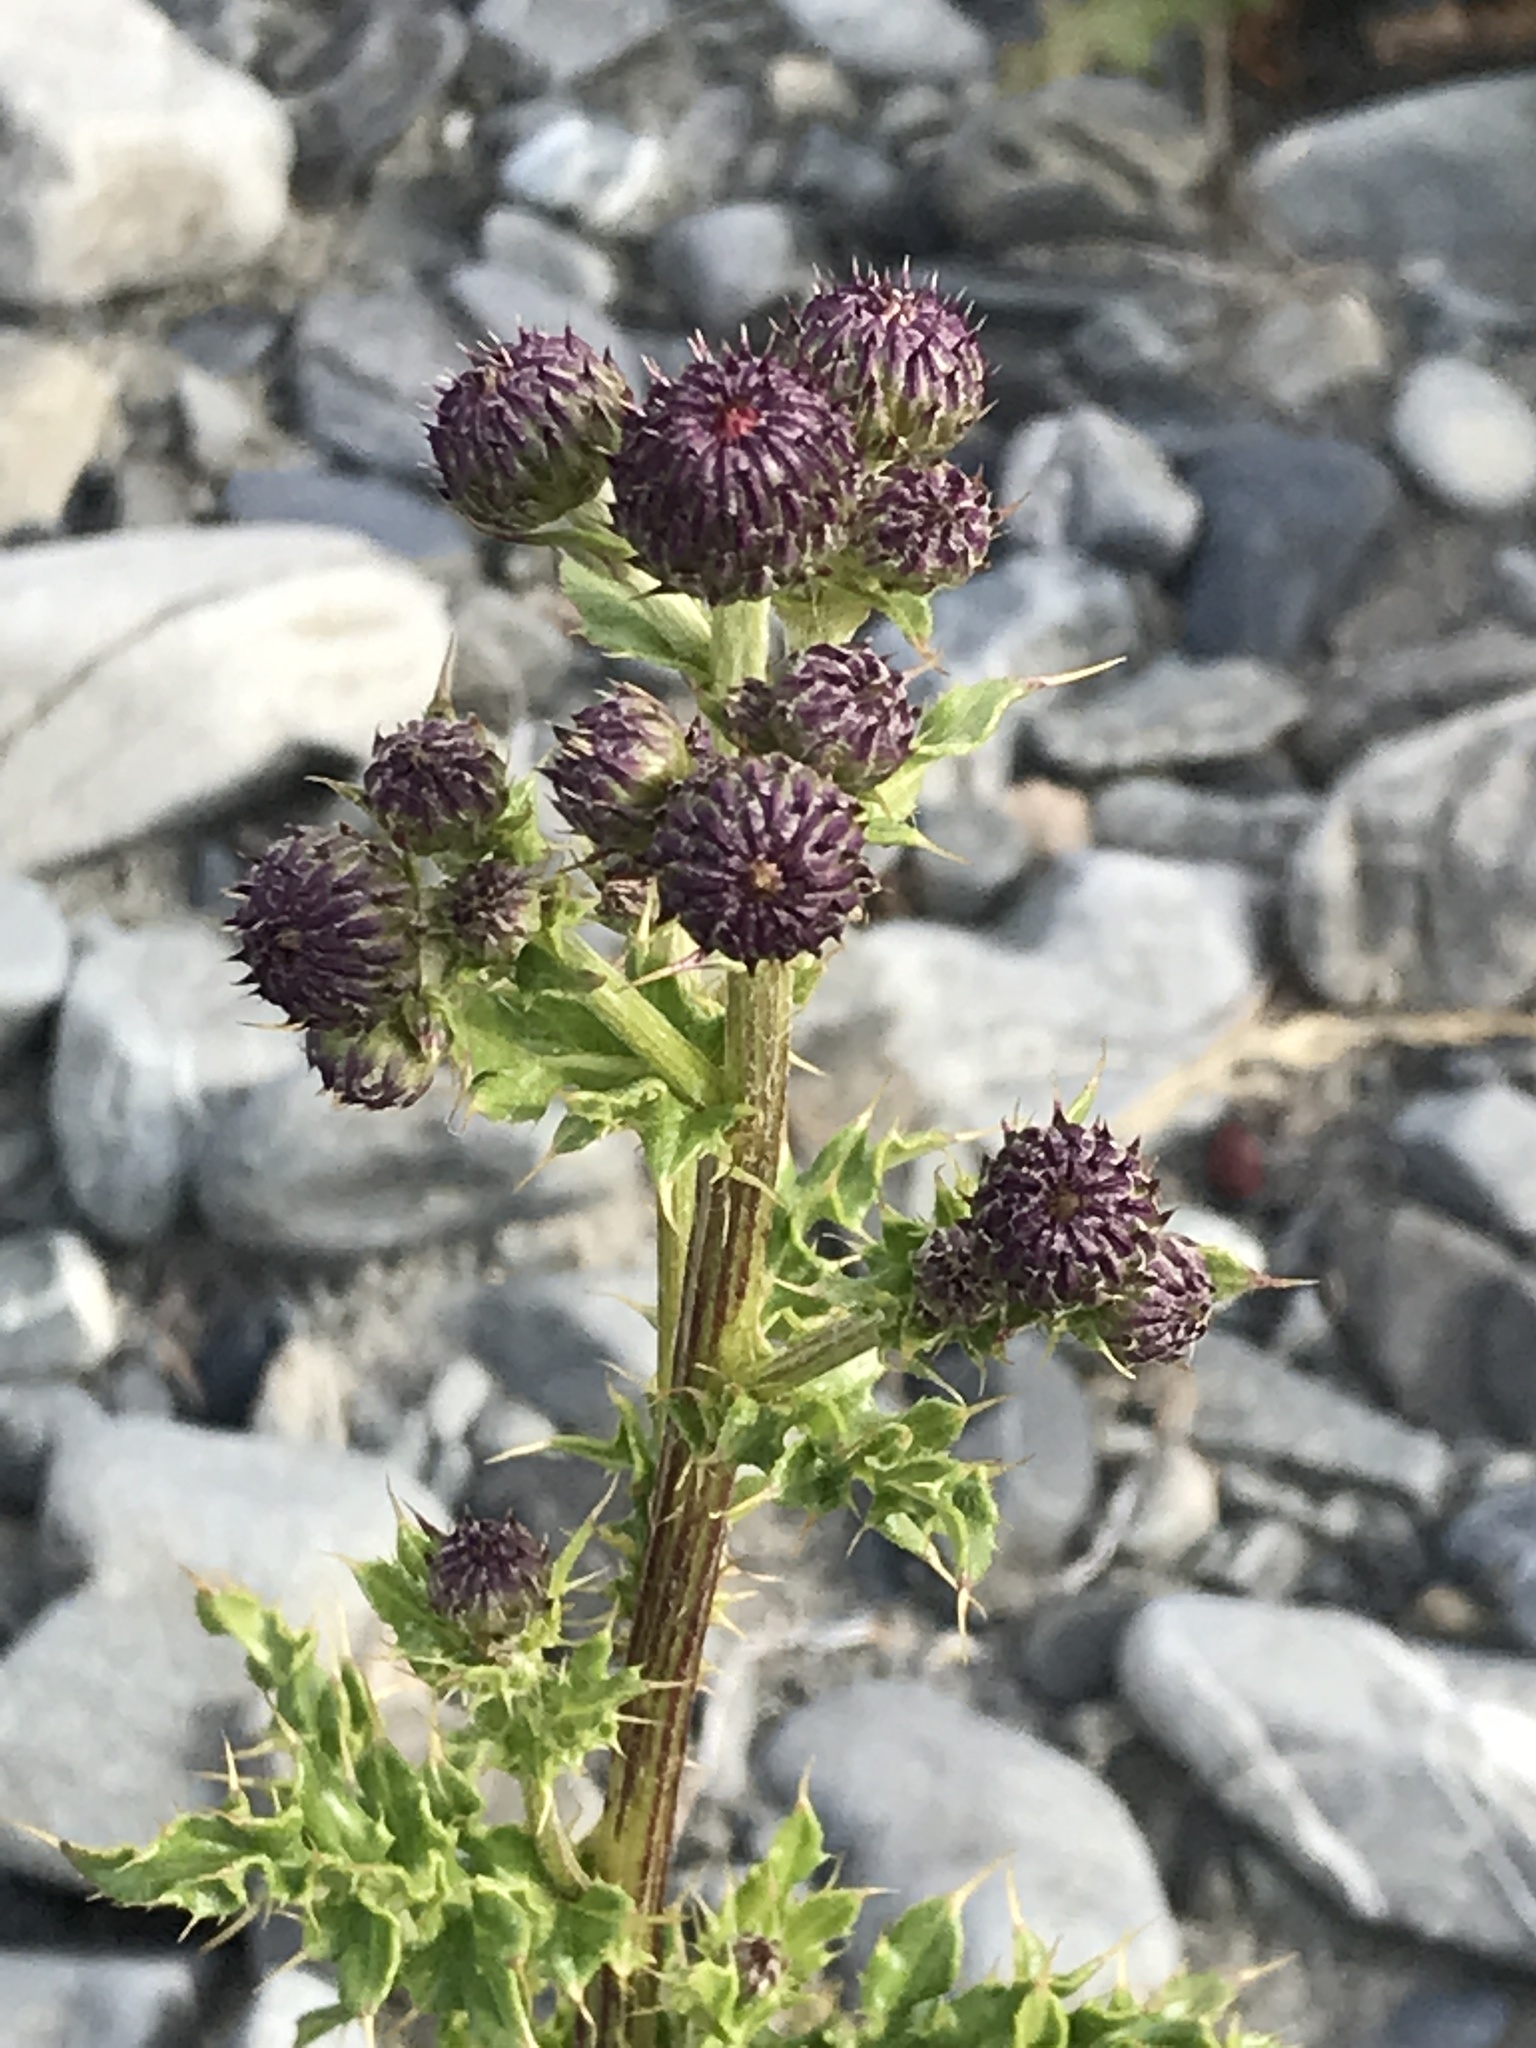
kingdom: Plantae
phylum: Tracheophyta
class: Magnoliopsida
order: Asterales
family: Asteraceae
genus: Cirsium
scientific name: Cirsium arvense
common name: Creeping thistle
